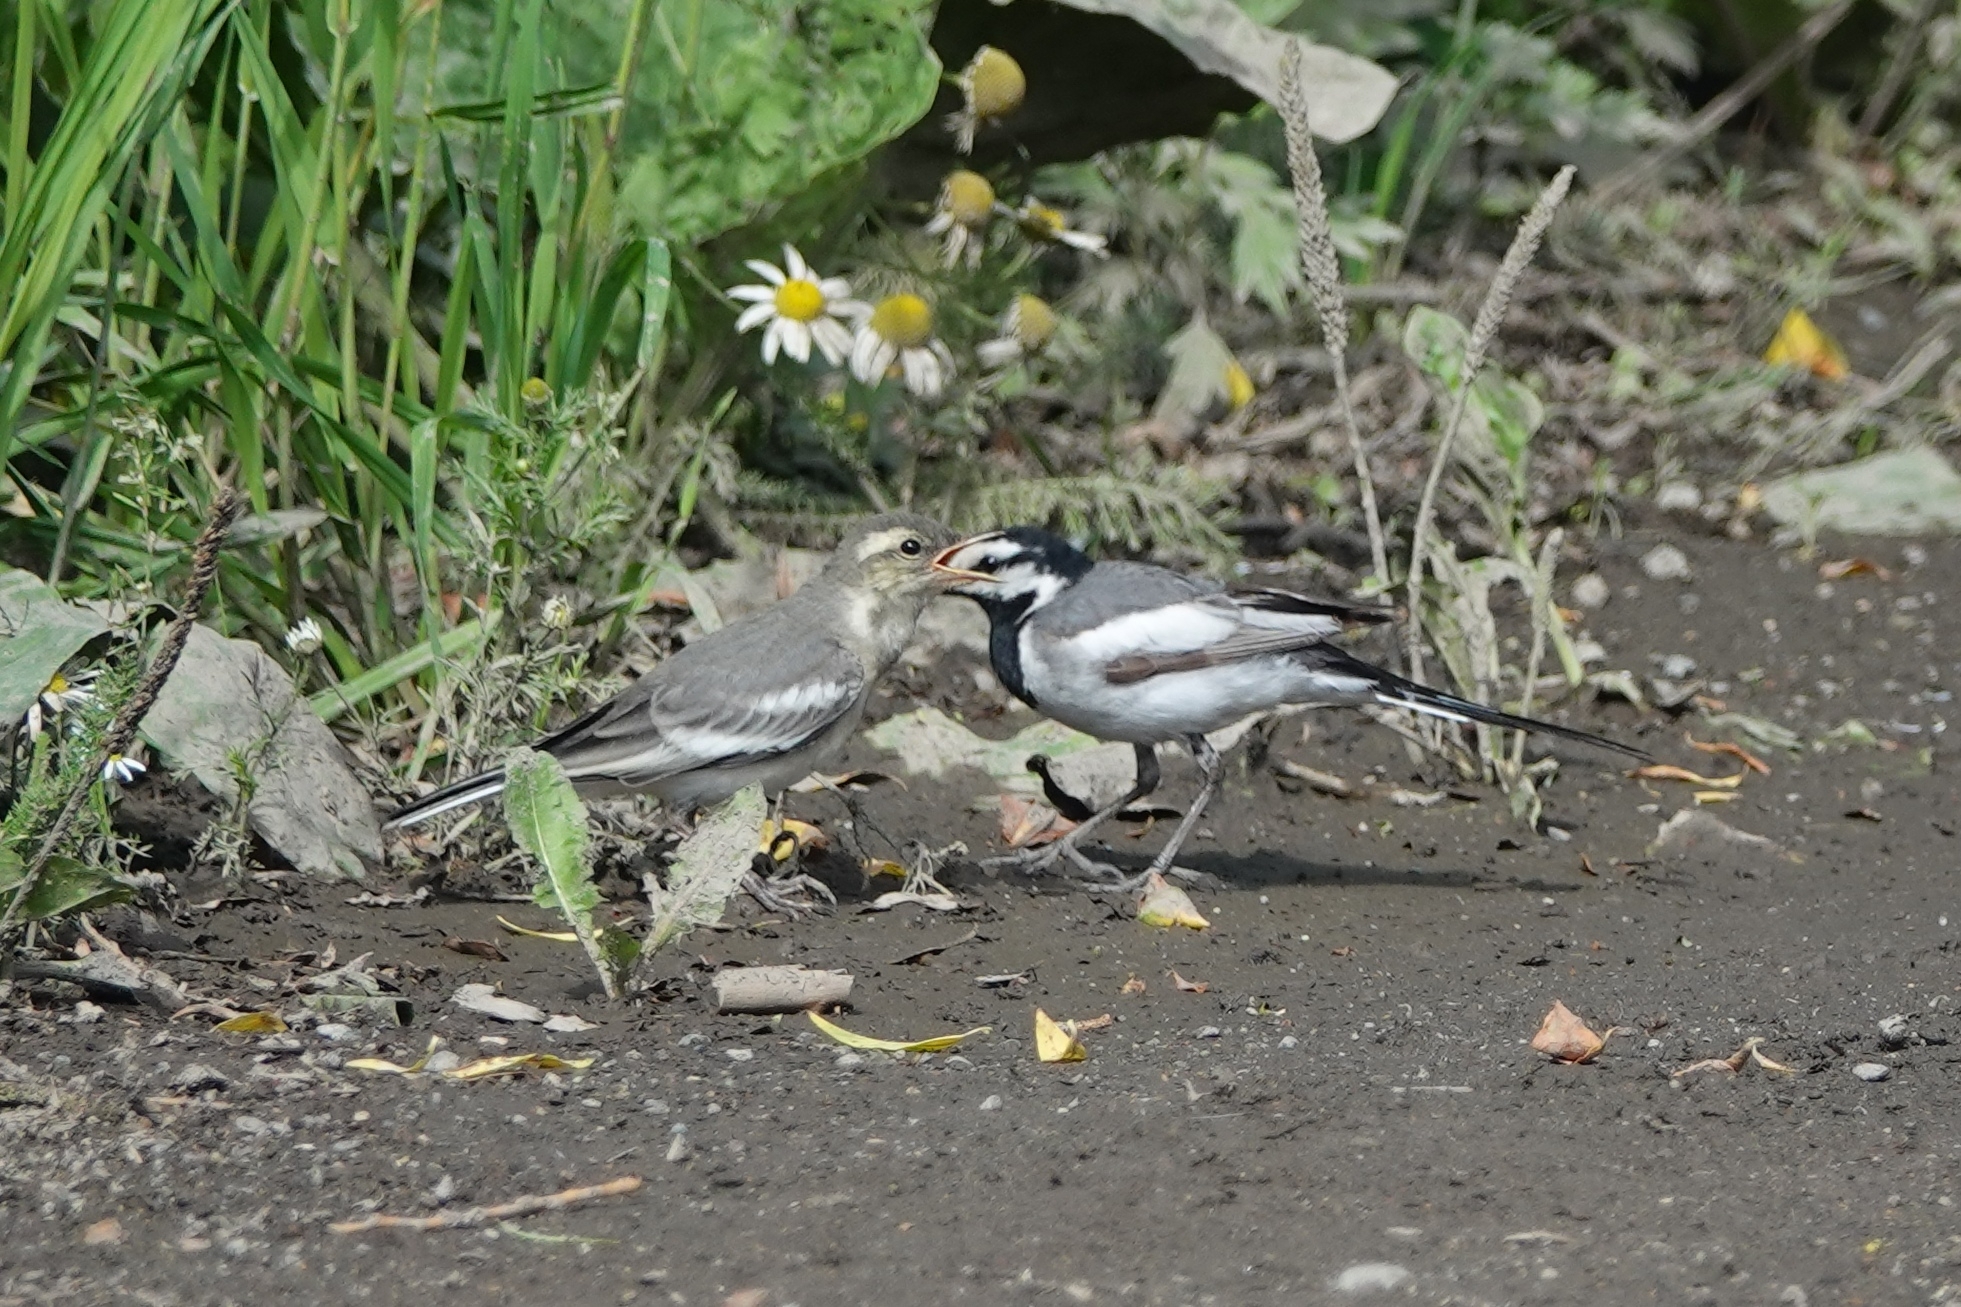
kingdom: Animalia
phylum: Chordata
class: Aves
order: Passeriformes
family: Motacillidae
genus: Motacilla
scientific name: Motacilla alba
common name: White wagtail
